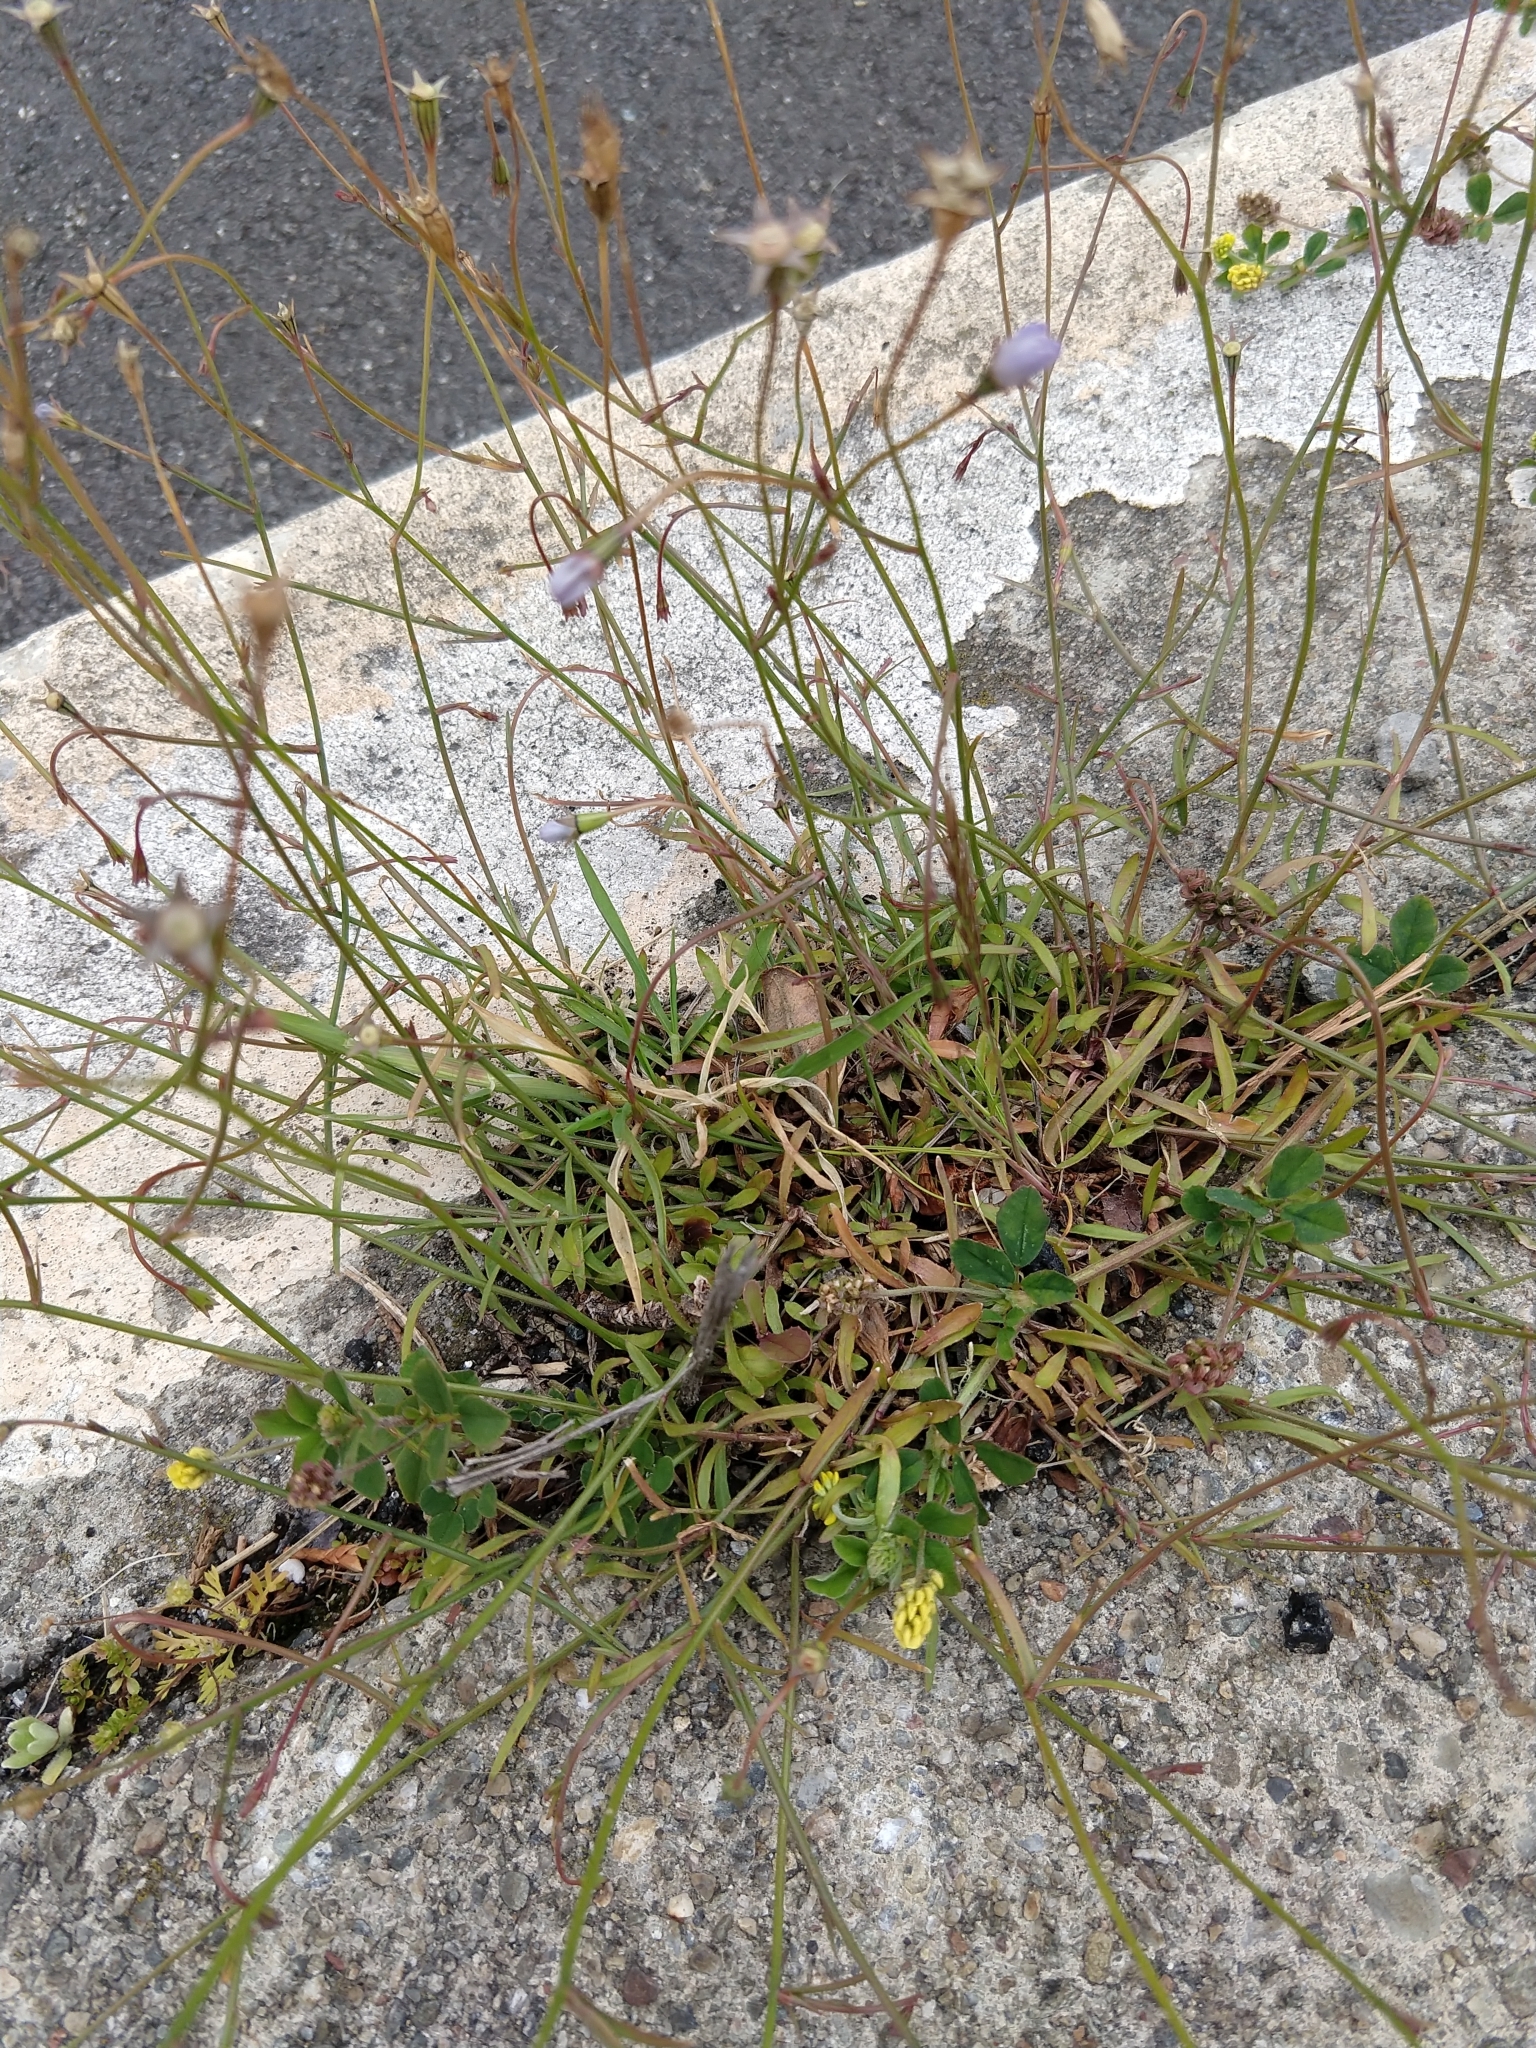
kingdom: Plantae
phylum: Tracheophyta
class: Magnoliopsida
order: Asterales
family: Campanulaceae
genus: Wahlenbergia
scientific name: Wahlenbergia marginata
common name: Southern rockbell
